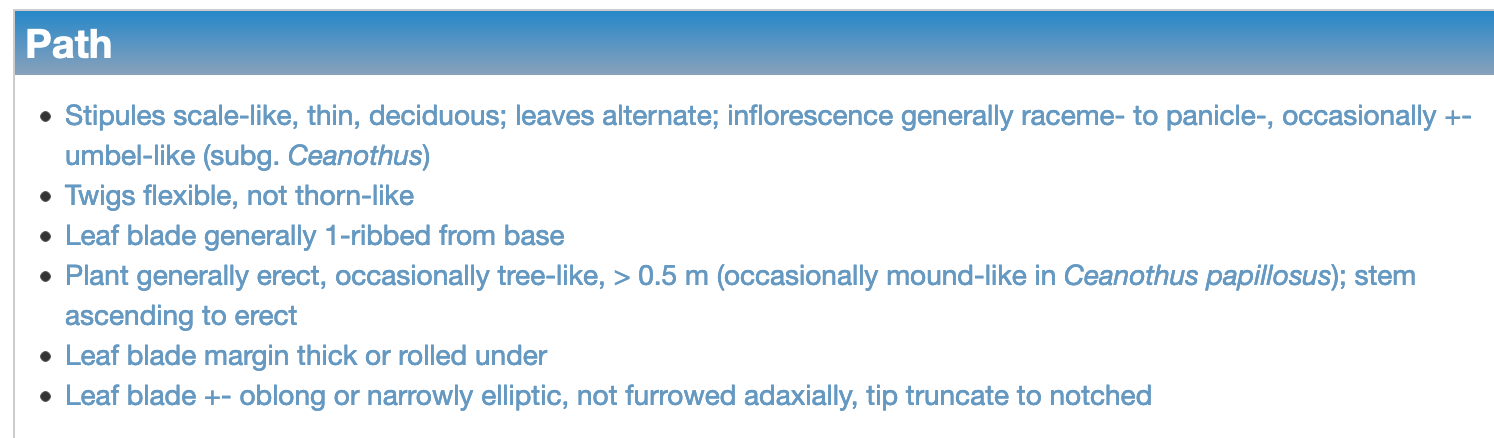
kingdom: Plantae
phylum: Tracheophyta
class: Magnoliopsida
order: Rosales
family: Rhamnaceae
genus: Ceanothus
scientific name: Ceanothus dentatus
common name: Crop-leaf ceanothus
